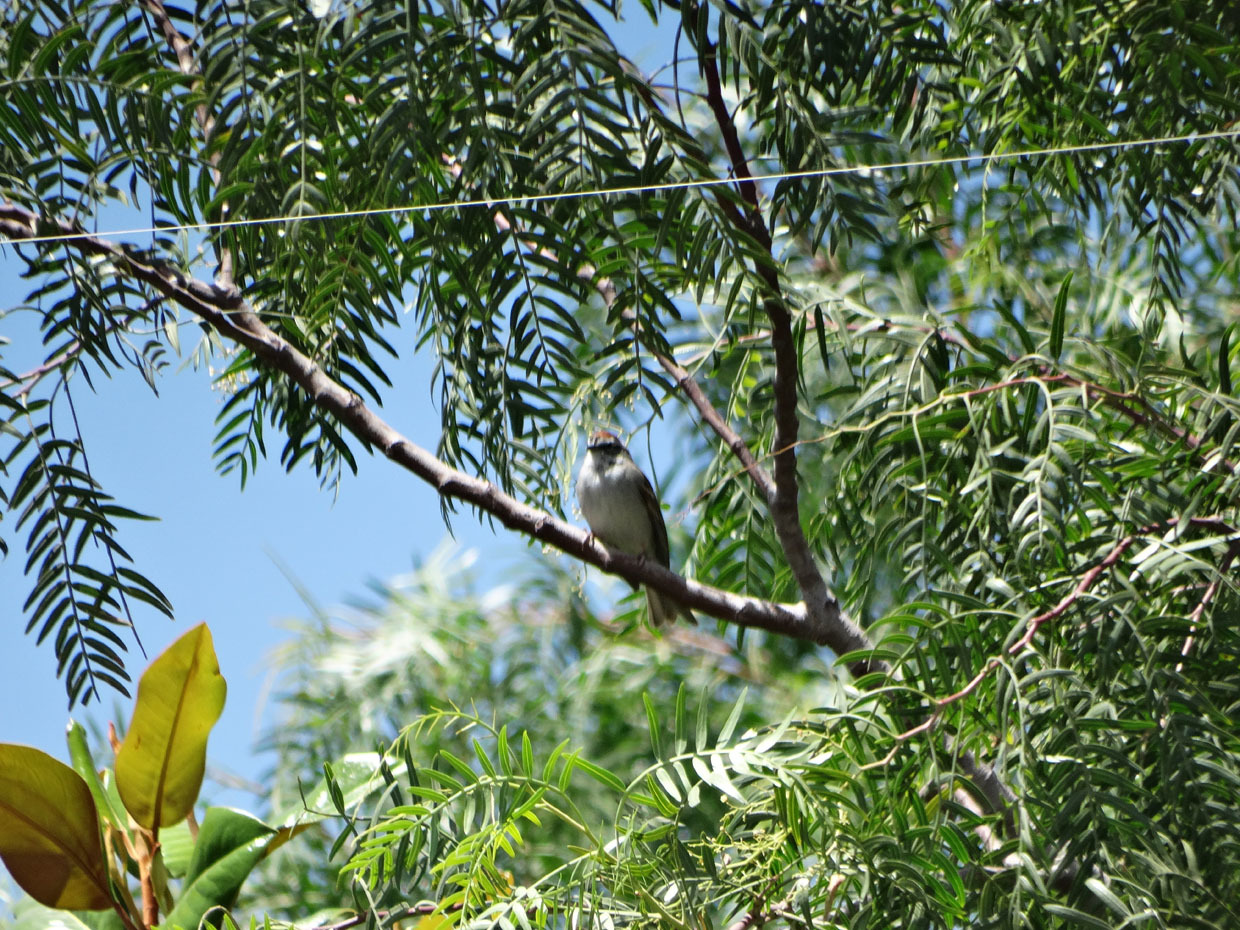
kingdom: Animalia
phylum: Chordata
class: Aves
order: Passeriformes
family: Passerellidae
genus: Spizella
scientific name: Spizella passerina
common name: Chipping sparrow
